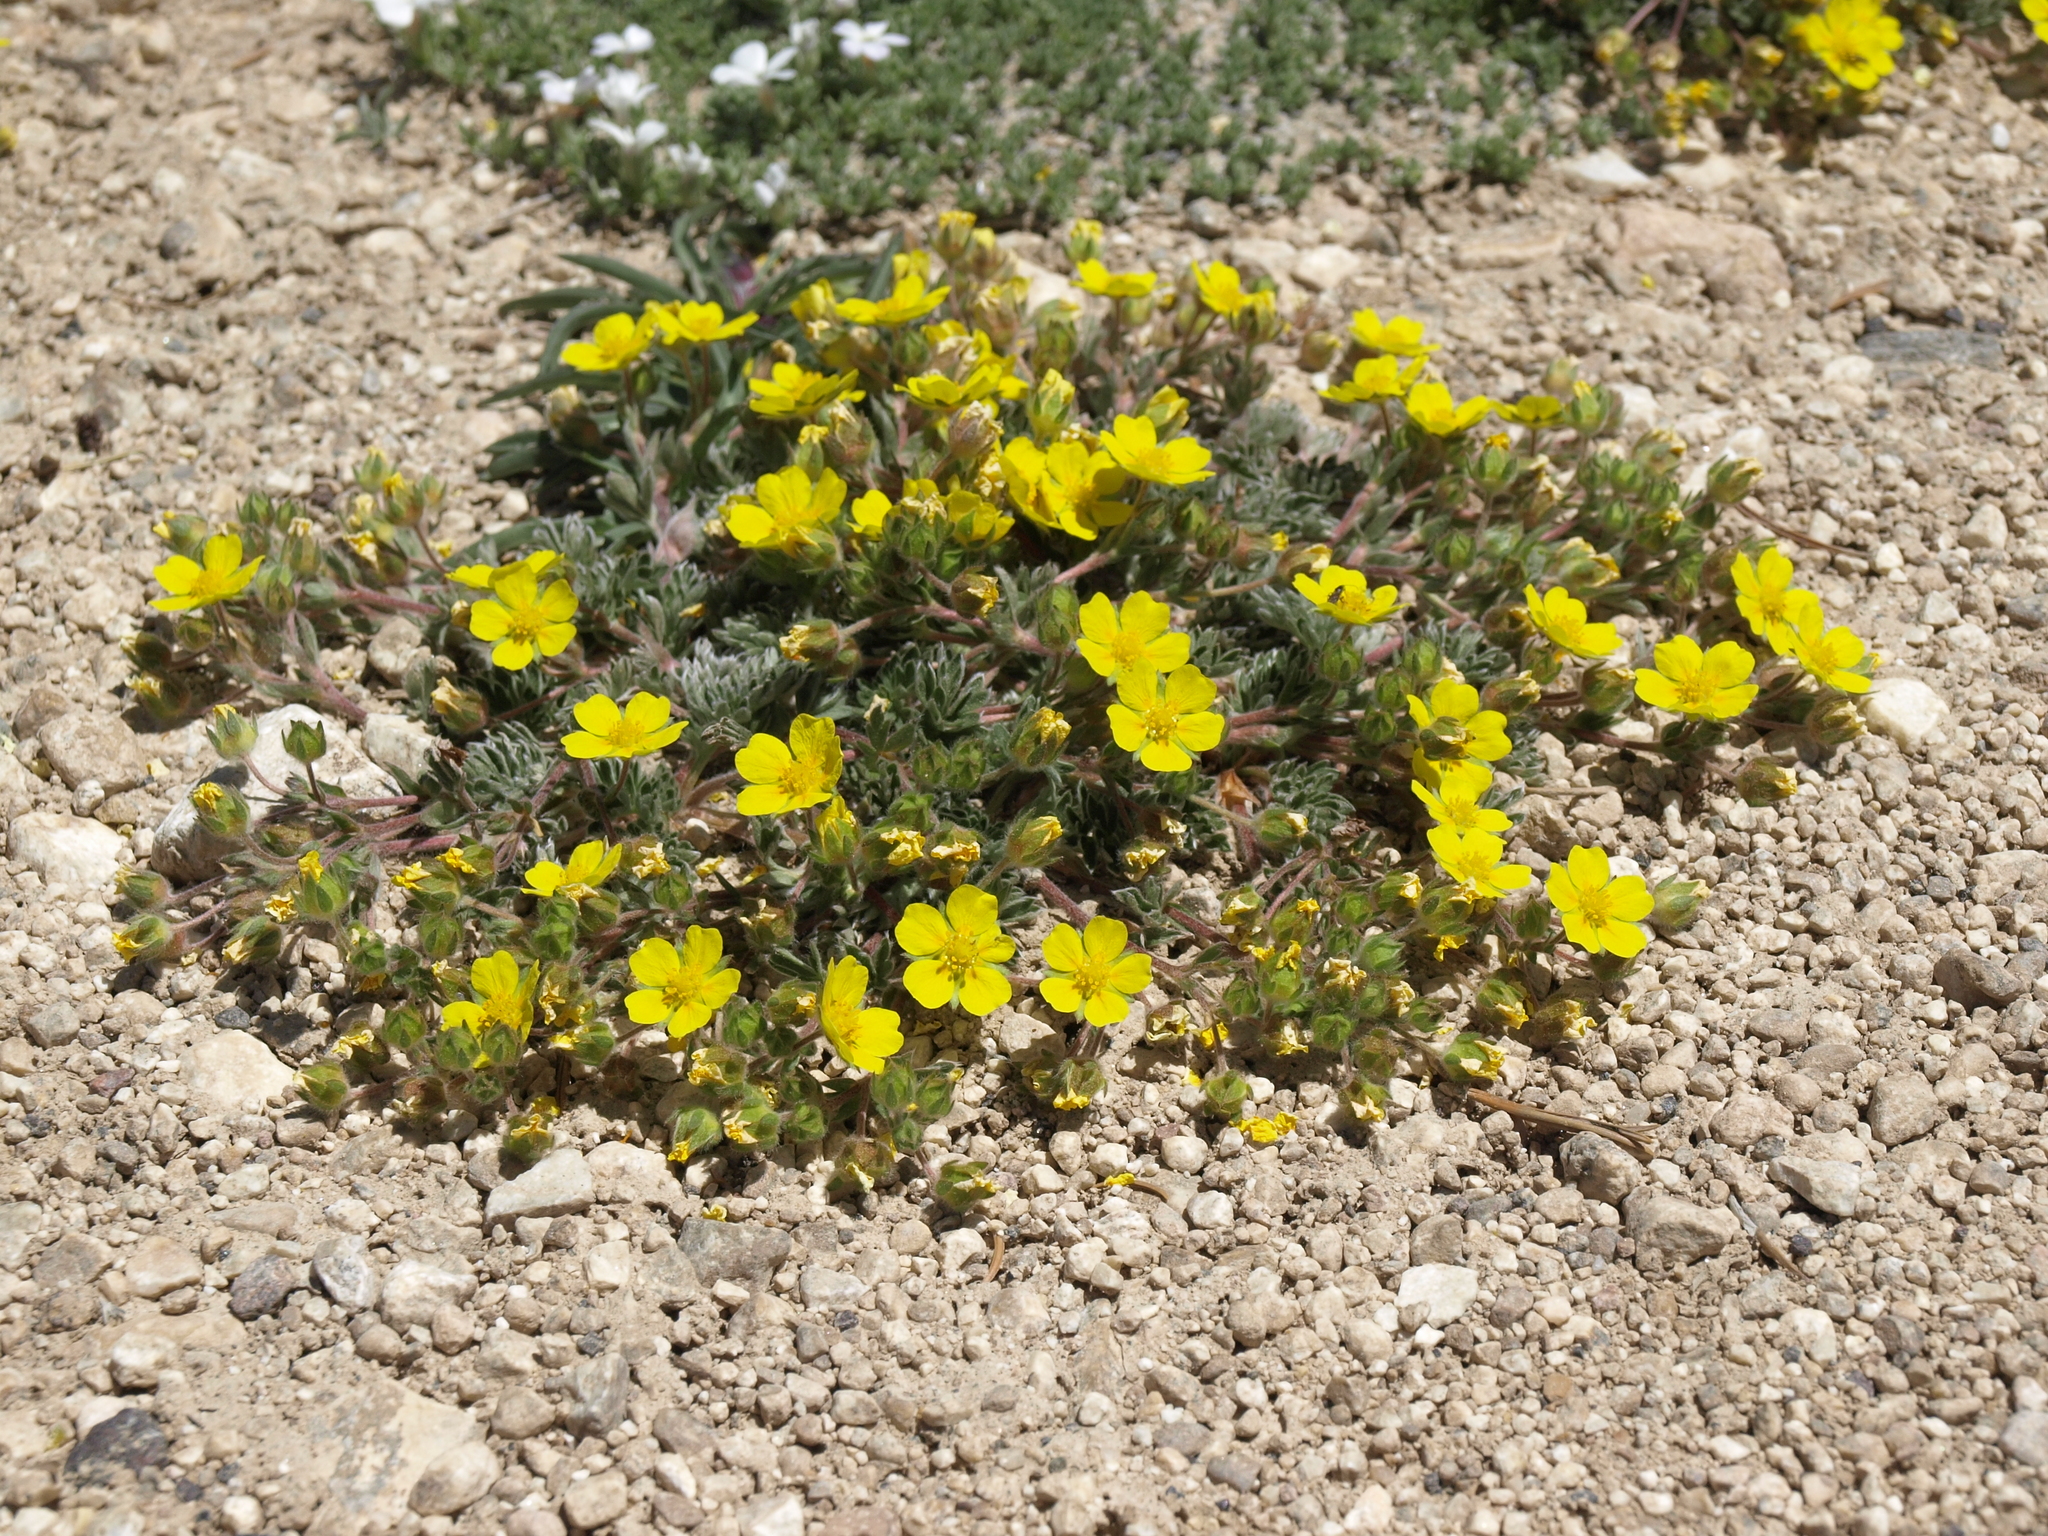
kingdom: Plantae
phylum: Tracheophyta
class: Magnoliopsida
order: Rosales
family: Rosaceae
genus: Potentilla
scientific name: Potentilla morefieldii
